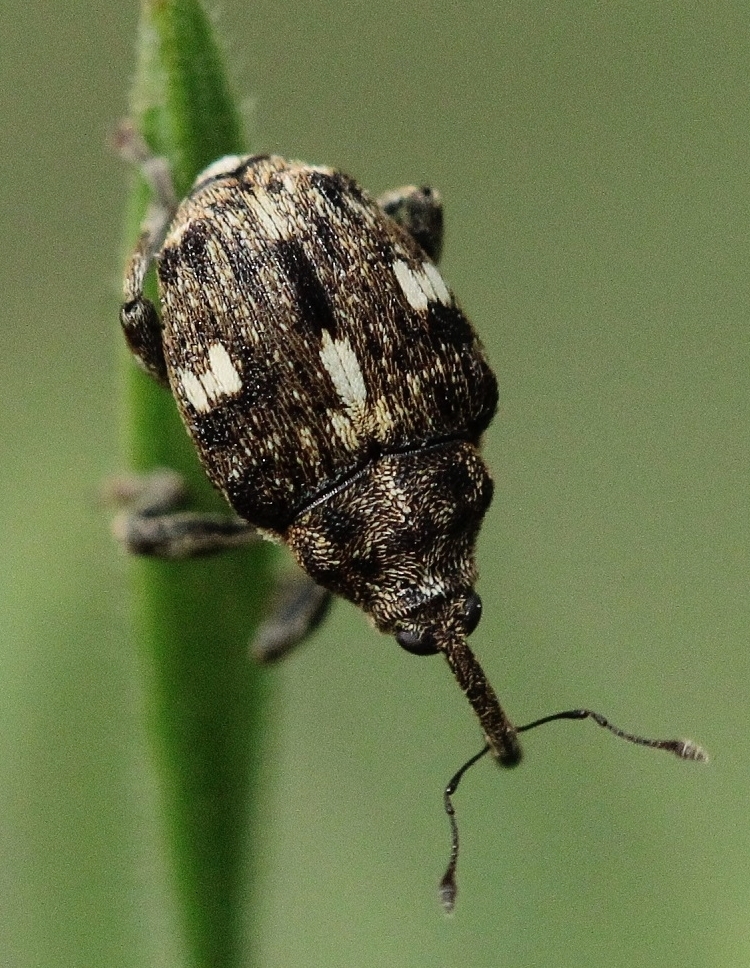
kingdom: Animalia
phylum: Arthropoda
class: Insecta
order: Coleoptera
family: Curculionidae
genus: Mogulones
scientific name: Mogulones cynoglossi
